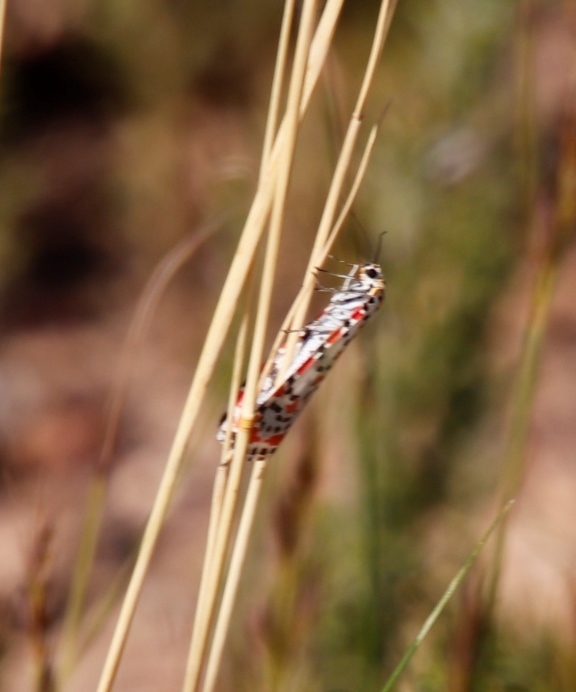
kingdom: Animalia
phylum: Arthropoda
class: Insecta
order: Lepidoptera
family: Erebidae
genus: Utetheisa
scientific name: Utetheisa pulchella
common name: Crimson speckled
